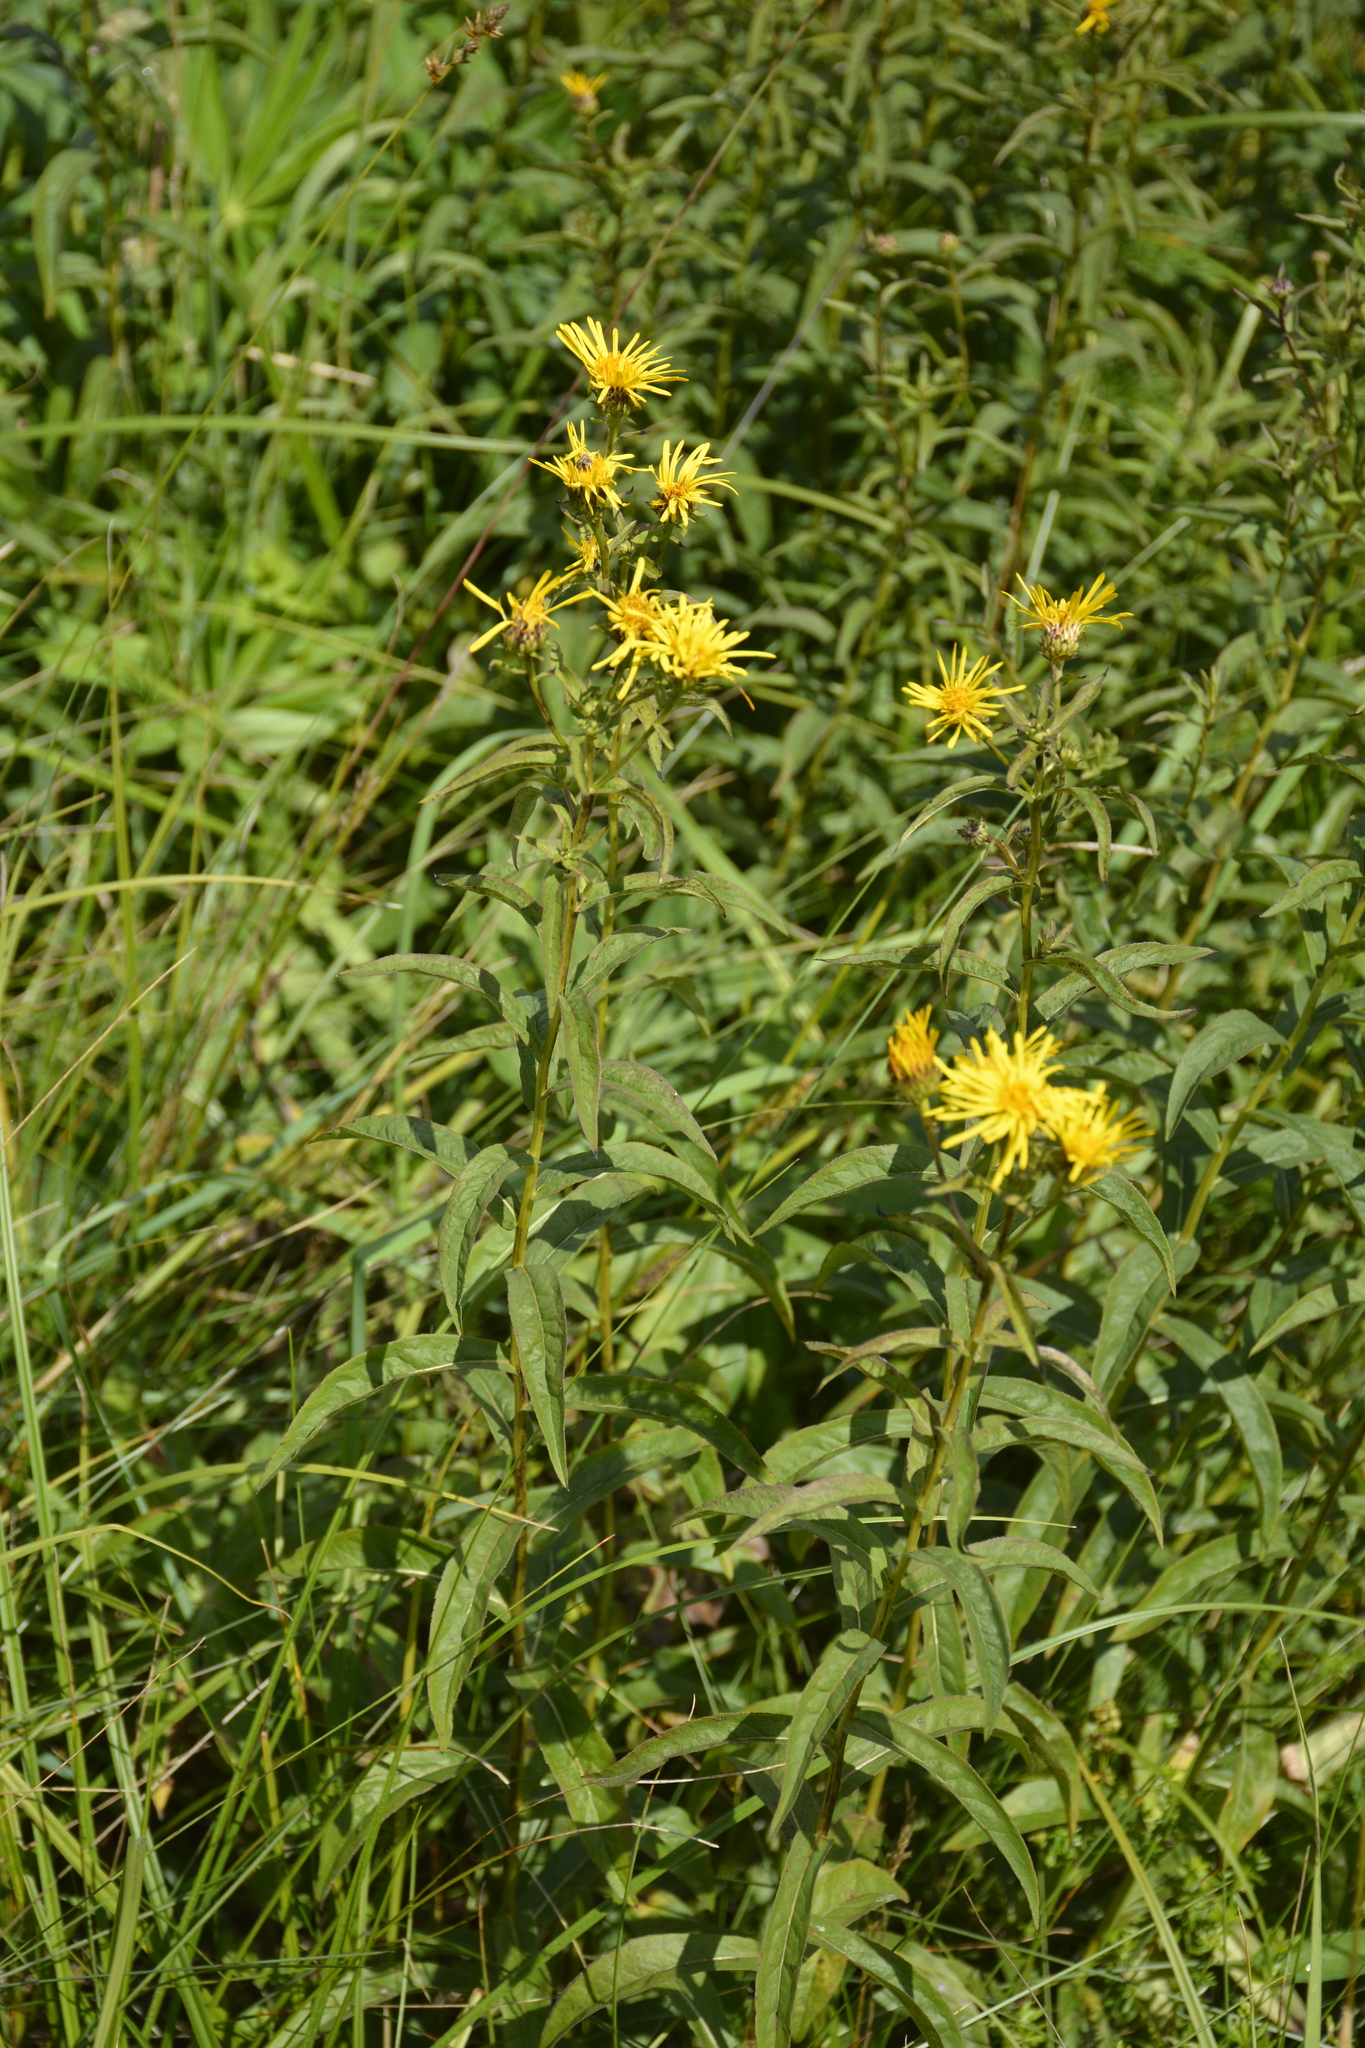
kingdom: Plantae
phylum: Tracheophyta
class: Magnoliopsida
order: Asterales
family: Asteraceae
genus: Pentanema
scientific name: Pentanema salicinum
